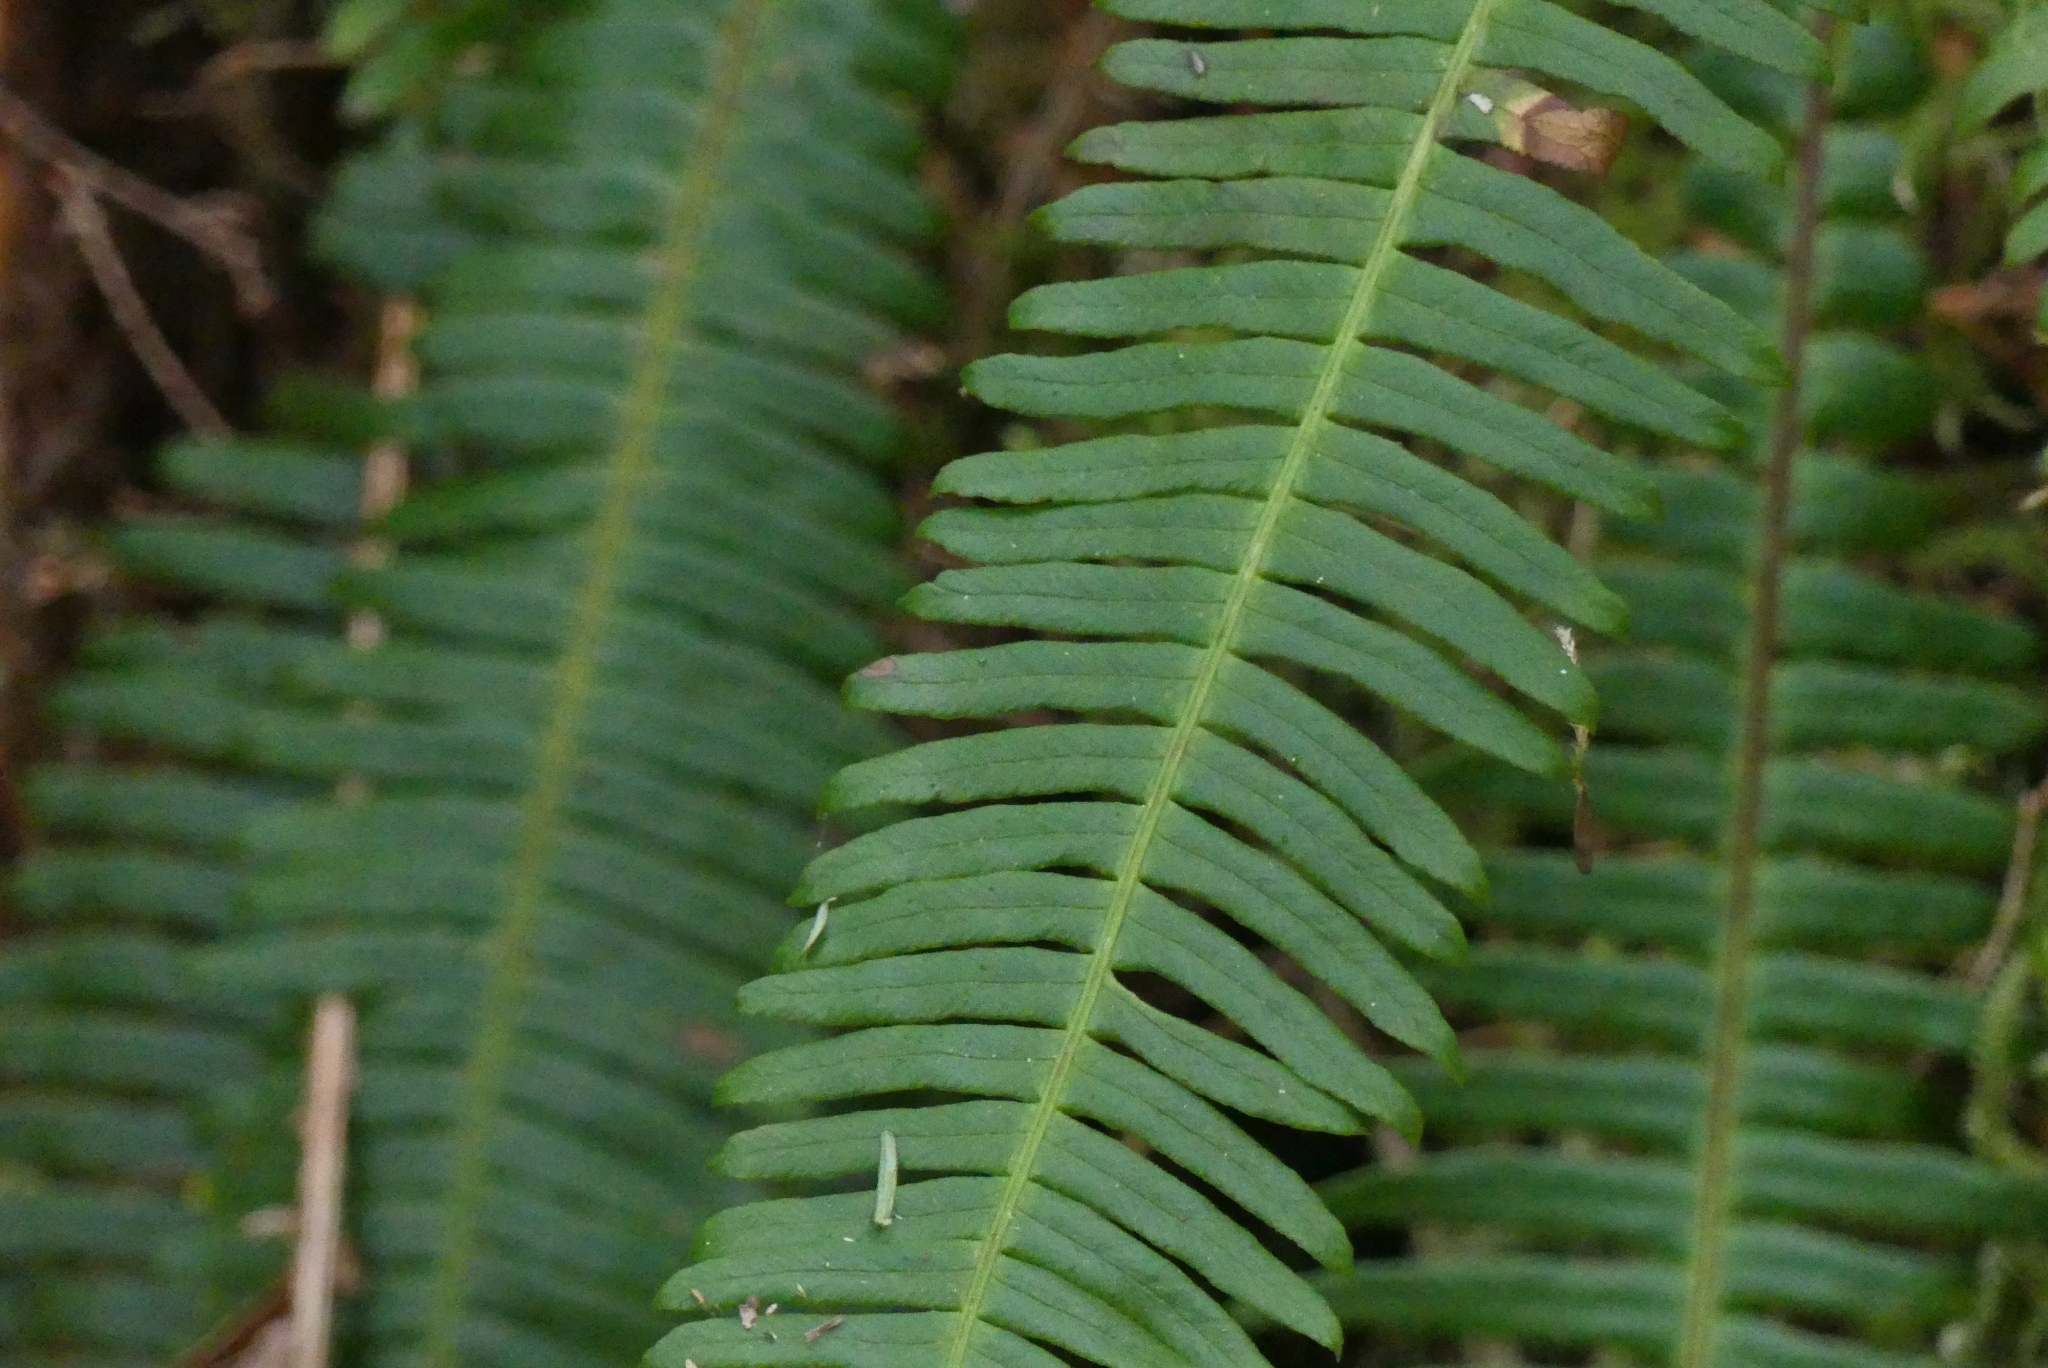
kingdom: Plantae
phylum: Tracheophyta
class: Polypodiopsida
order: Polypodiales
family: Blechnaceae
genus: Struthiopteris
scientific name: Struthiopteris spicant
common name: Deer fern
